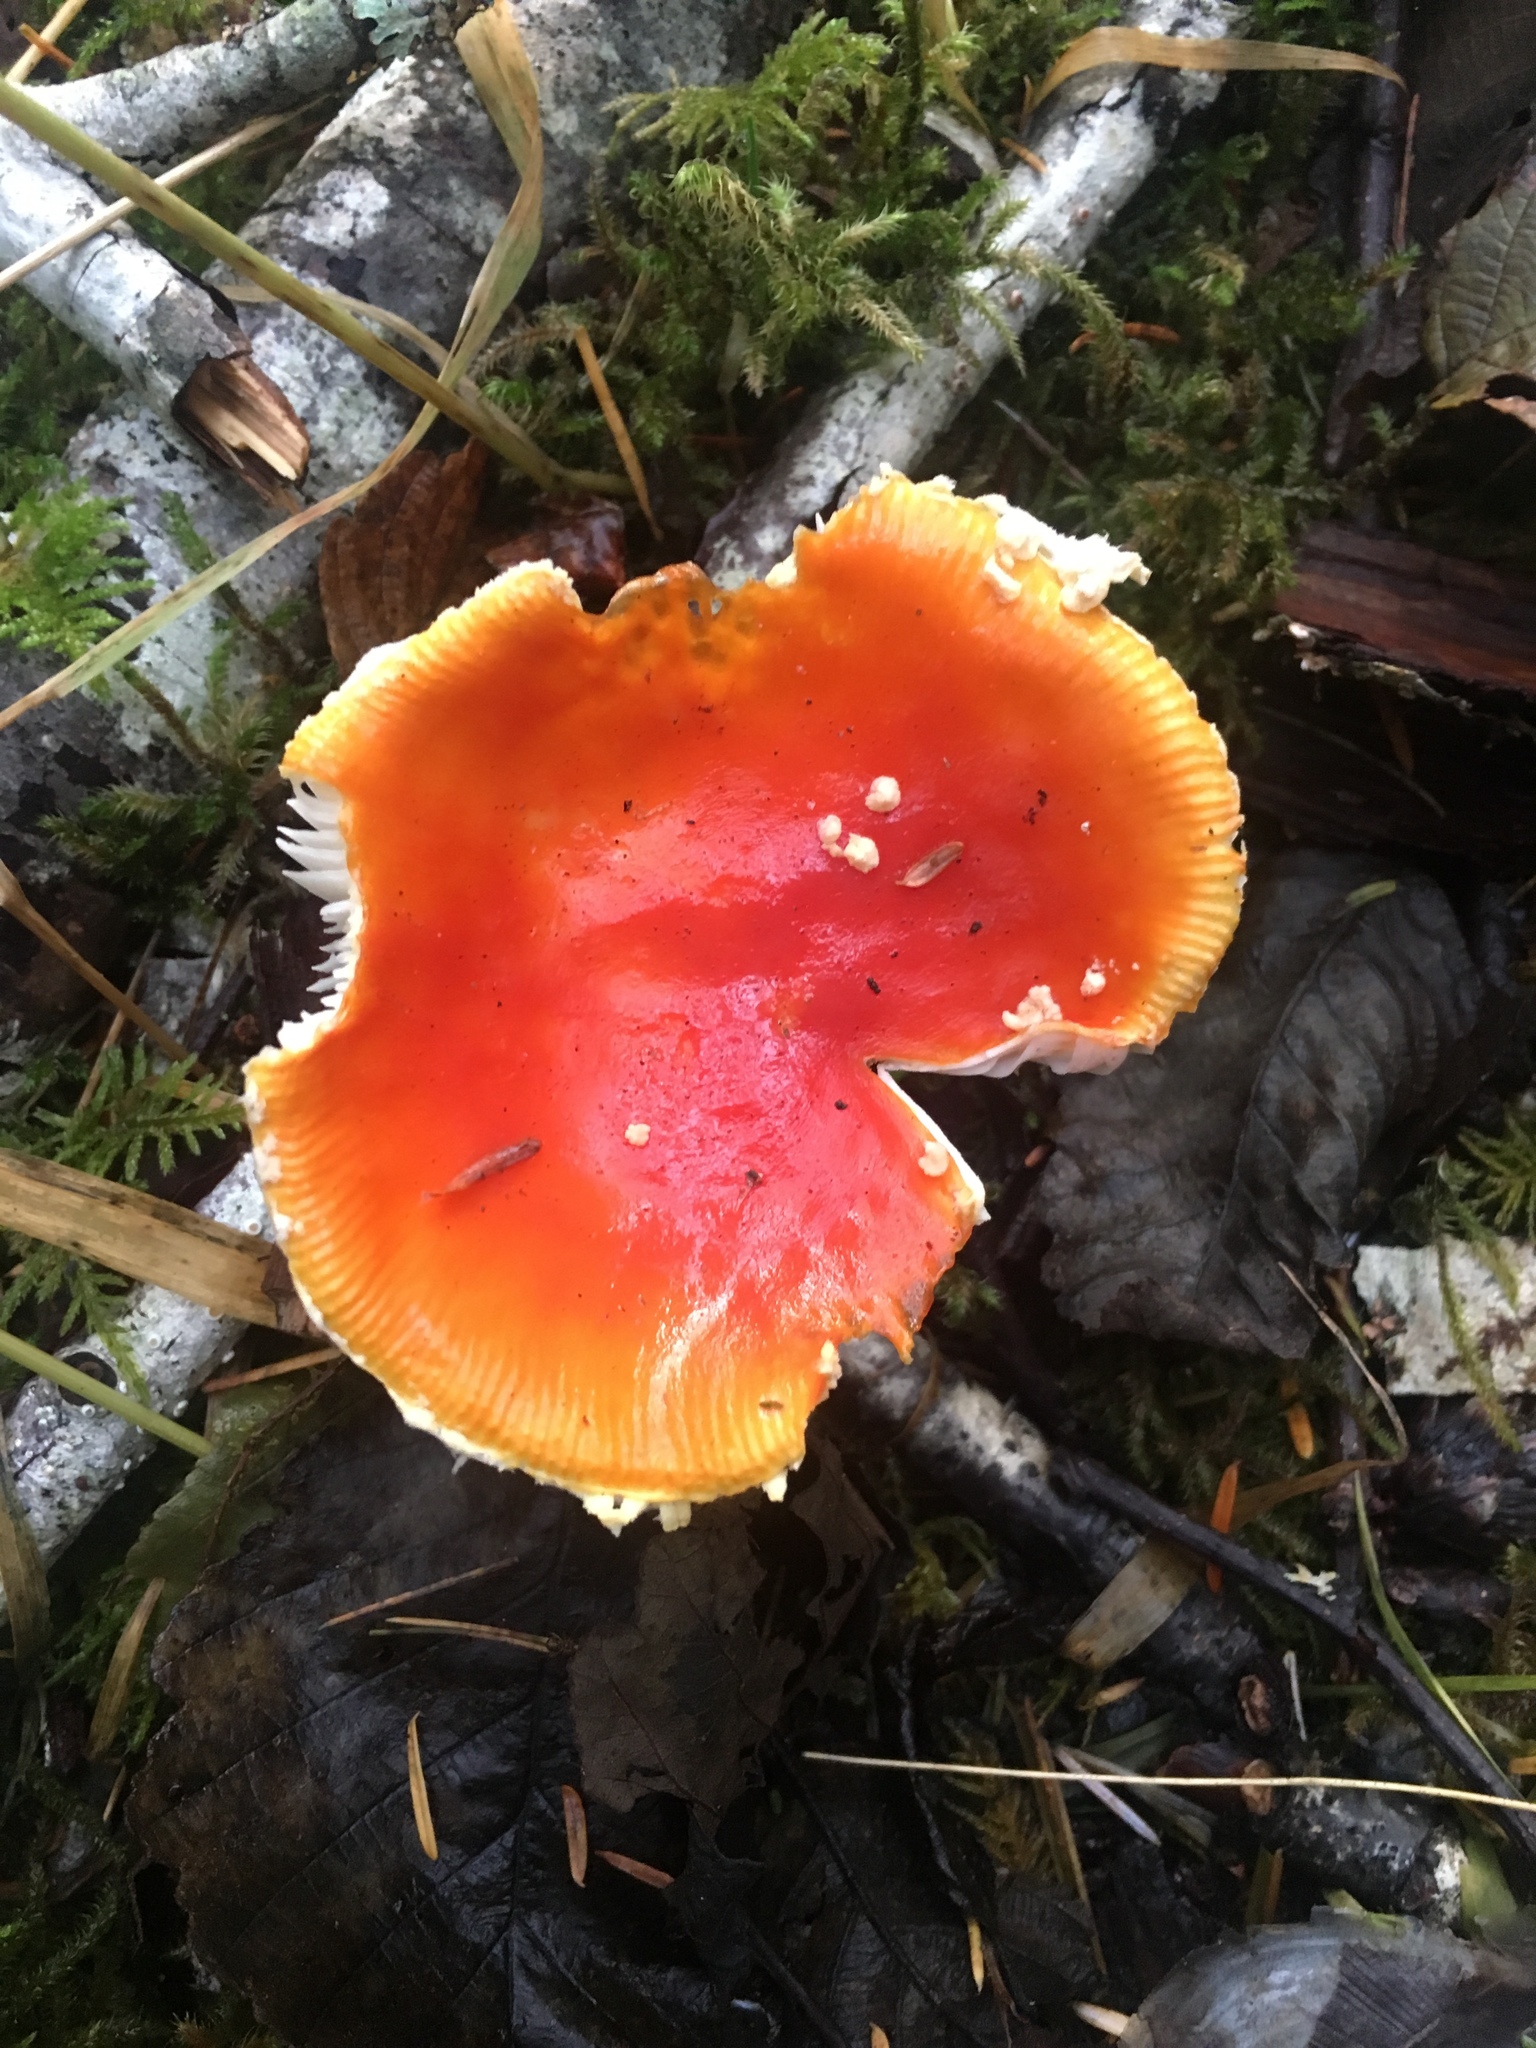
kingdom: Fungi
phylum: Basidiomycota
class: Agaricomycetes
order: Agaricales
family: Amanitaceae
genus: Amanita
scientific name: Amanita muscaria
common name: Fly agaric
